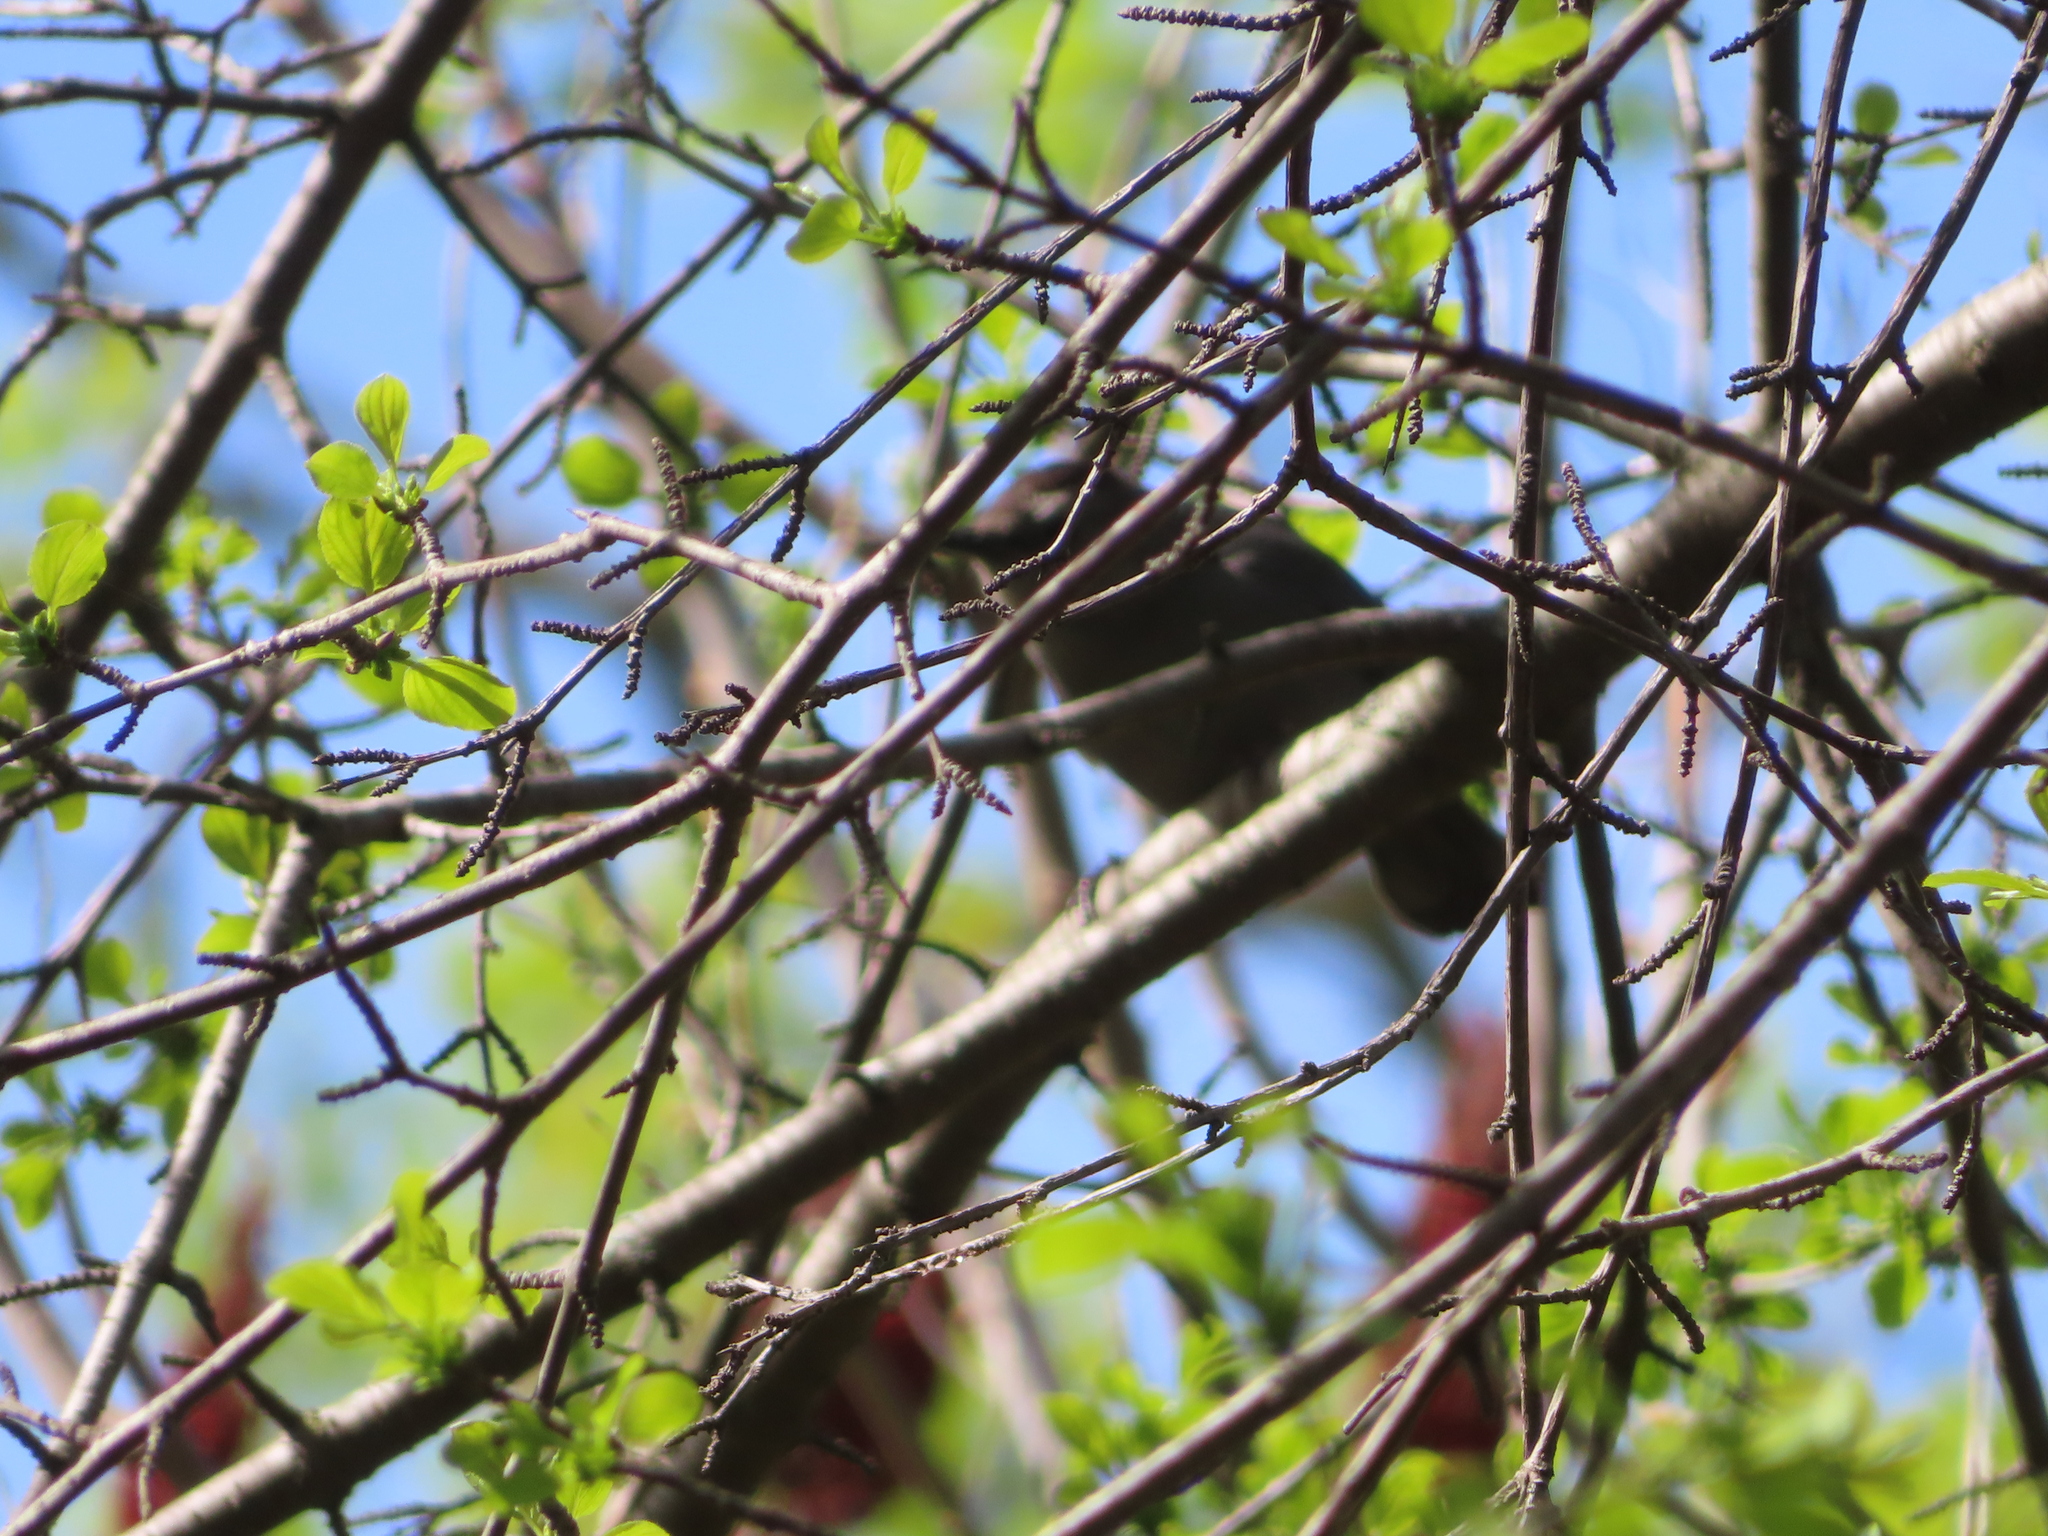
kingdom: Animalia
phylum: Chordata
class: Aves
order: Passeriformes
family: Mimidae
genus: Dumetella
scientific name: Dumetella carolinensis
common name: Gray catbird
